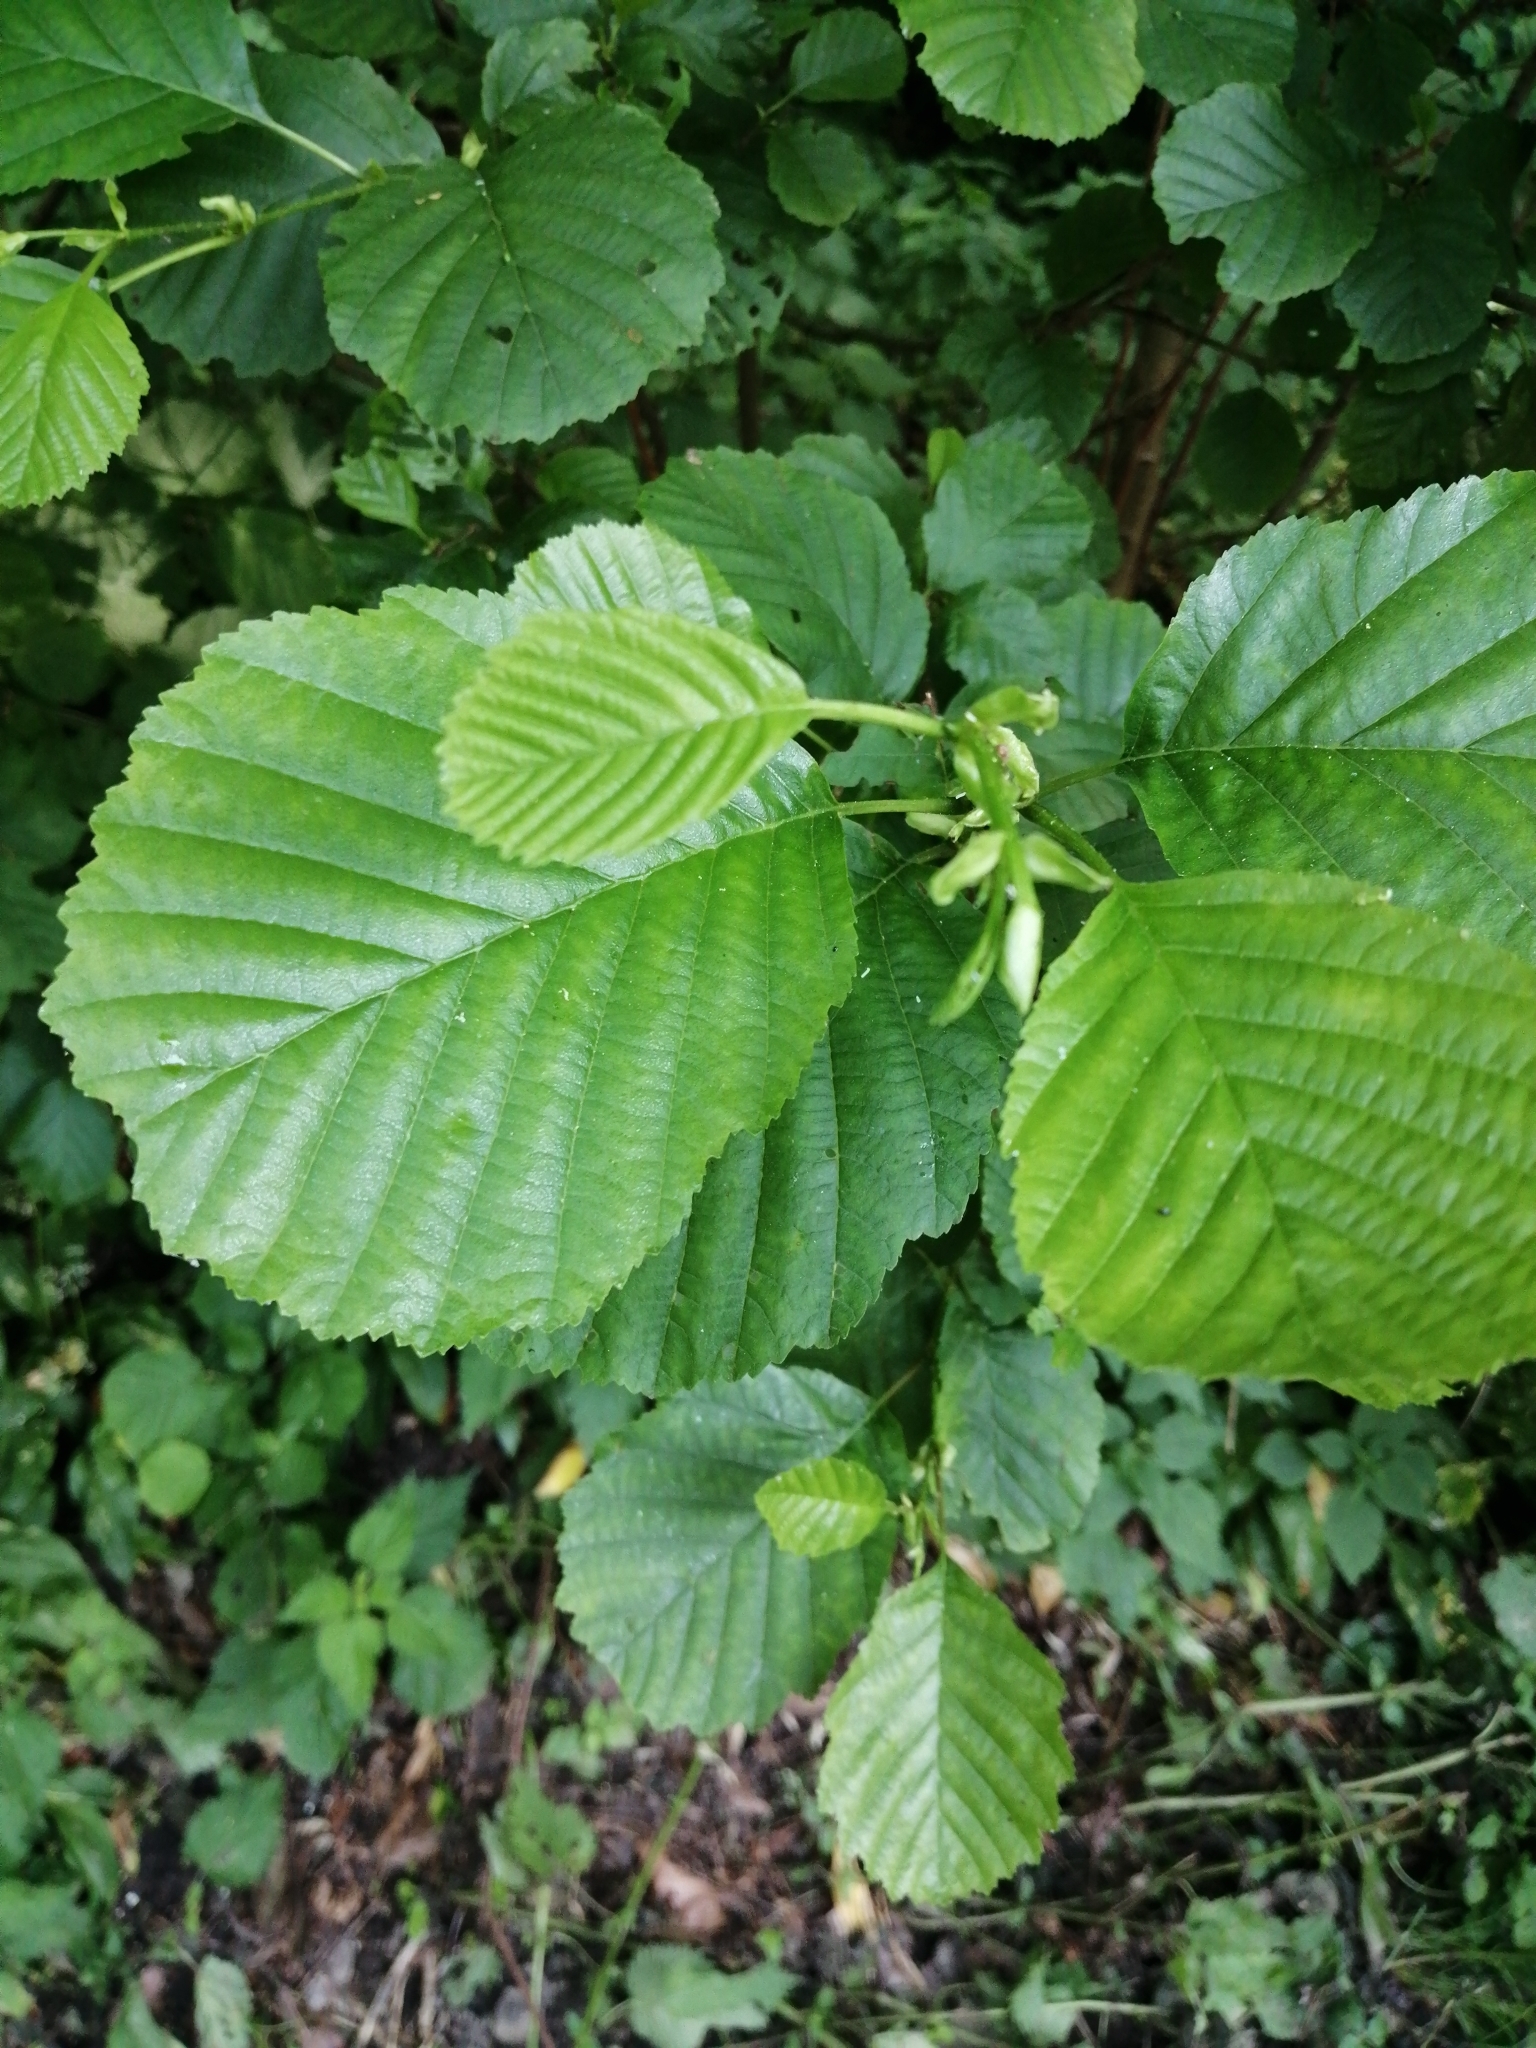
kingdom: Plantae
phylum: Tracheophyta
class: Magnoliopsida
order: Fagales
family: Betulaceae
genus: Alnus
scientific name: Alnus glutinosa
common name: Black alder
